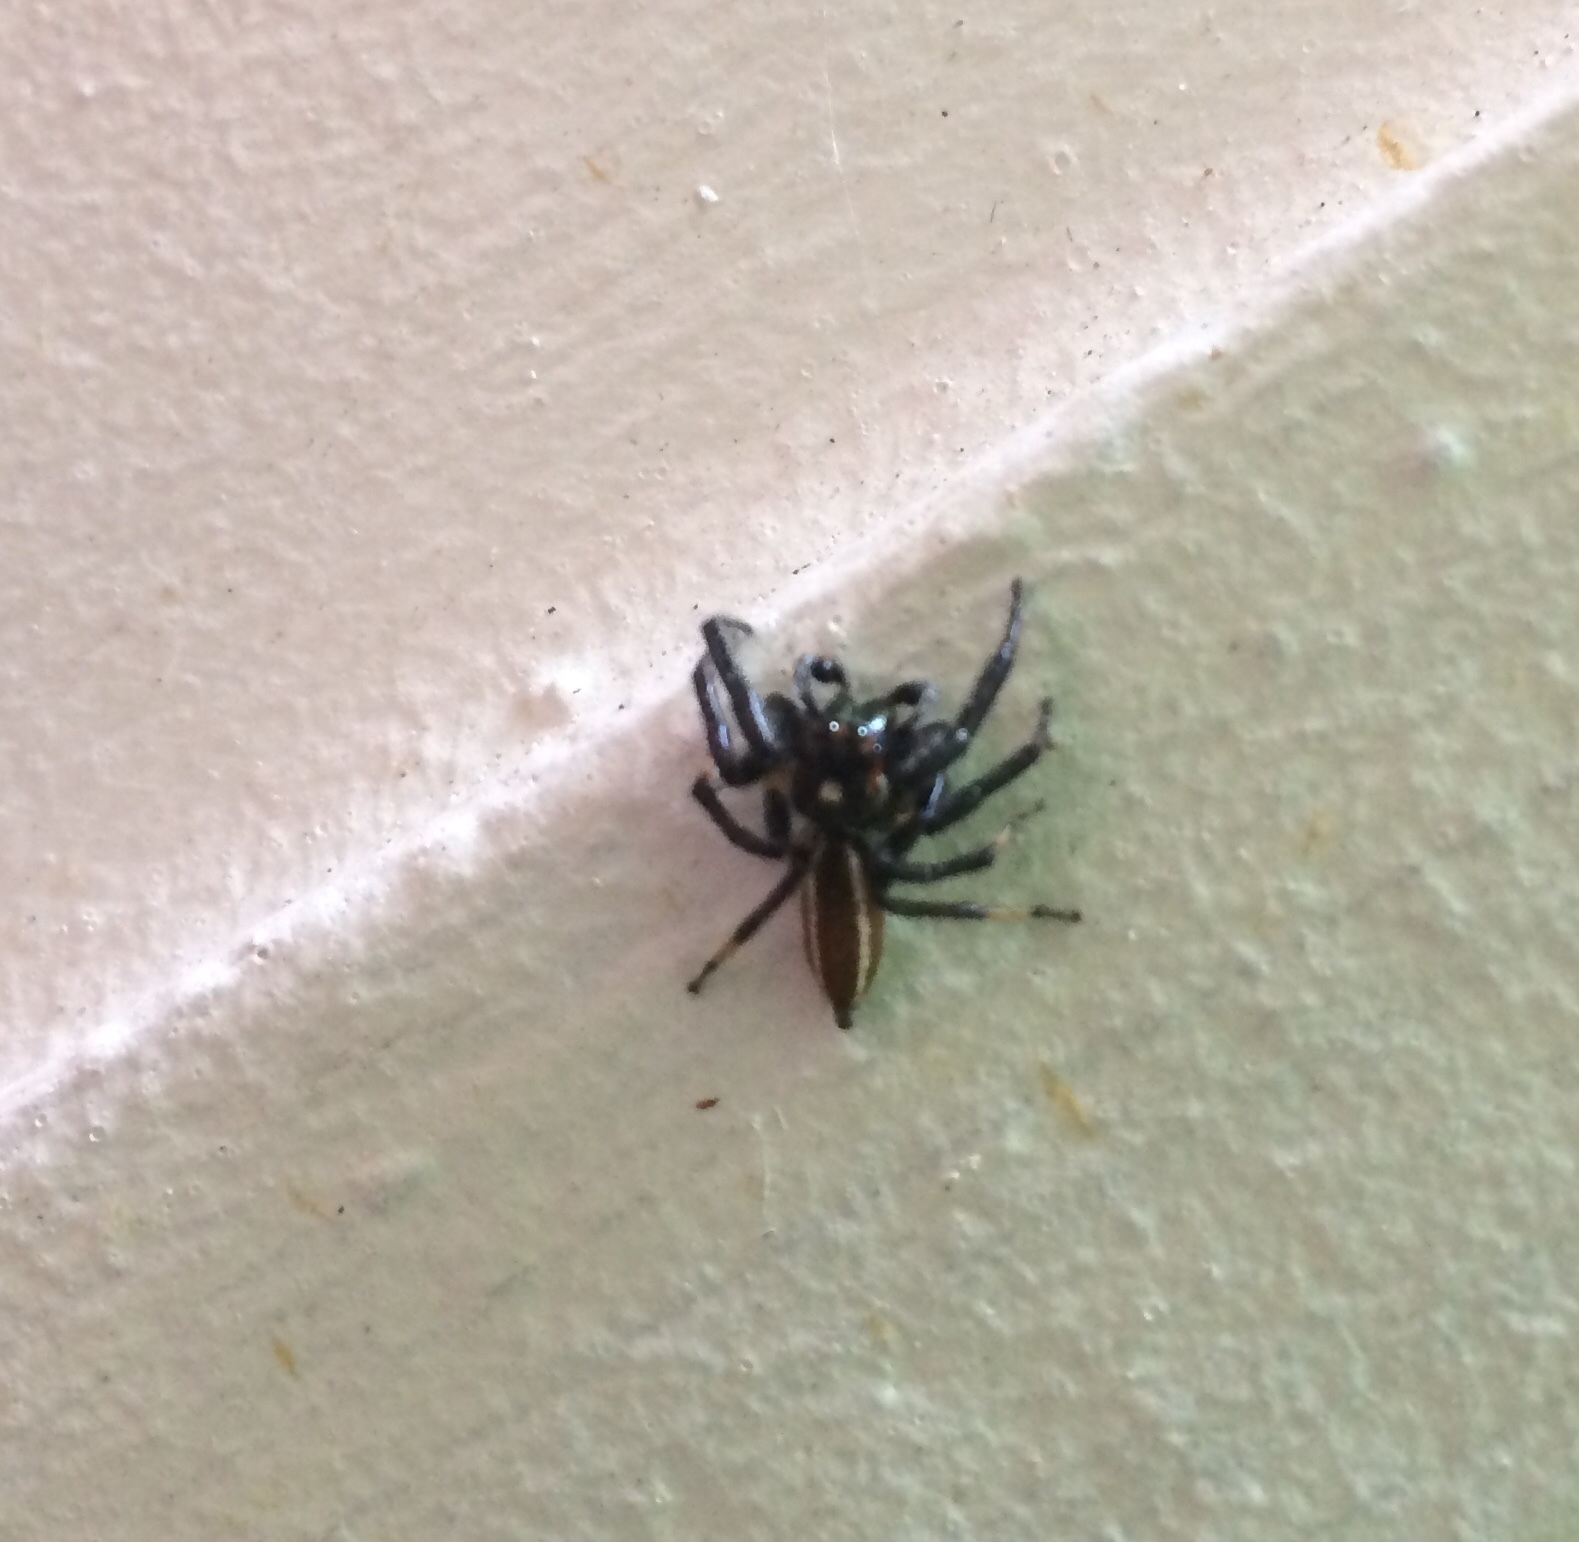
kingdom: Animalia
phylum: Arthropoda
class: Arachnida
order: Araneae
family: Salticidae
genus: Colonus
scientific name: Colonus sylvanus
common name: Jumping spiders
